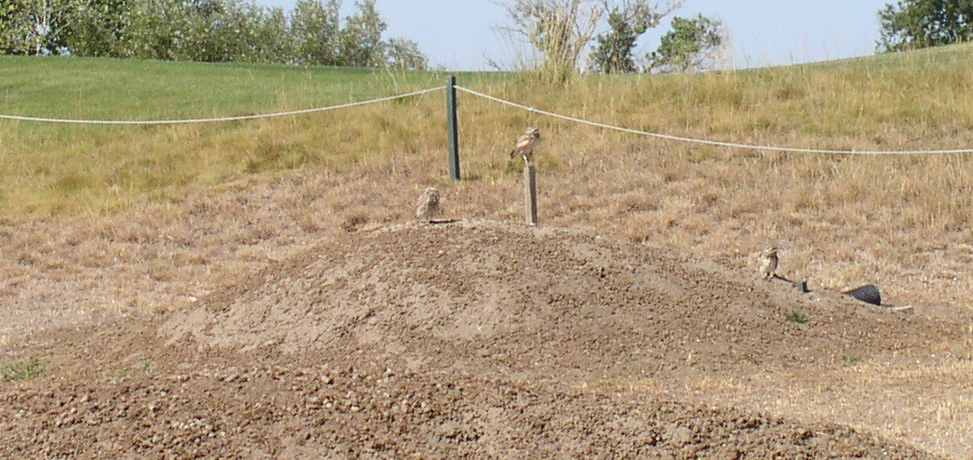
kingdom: Animalia
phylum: Chordata
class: Aves
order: Strigiformes
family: Strigidae
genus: Athene
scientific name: Athene cunicularia
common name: Burrowing owl
